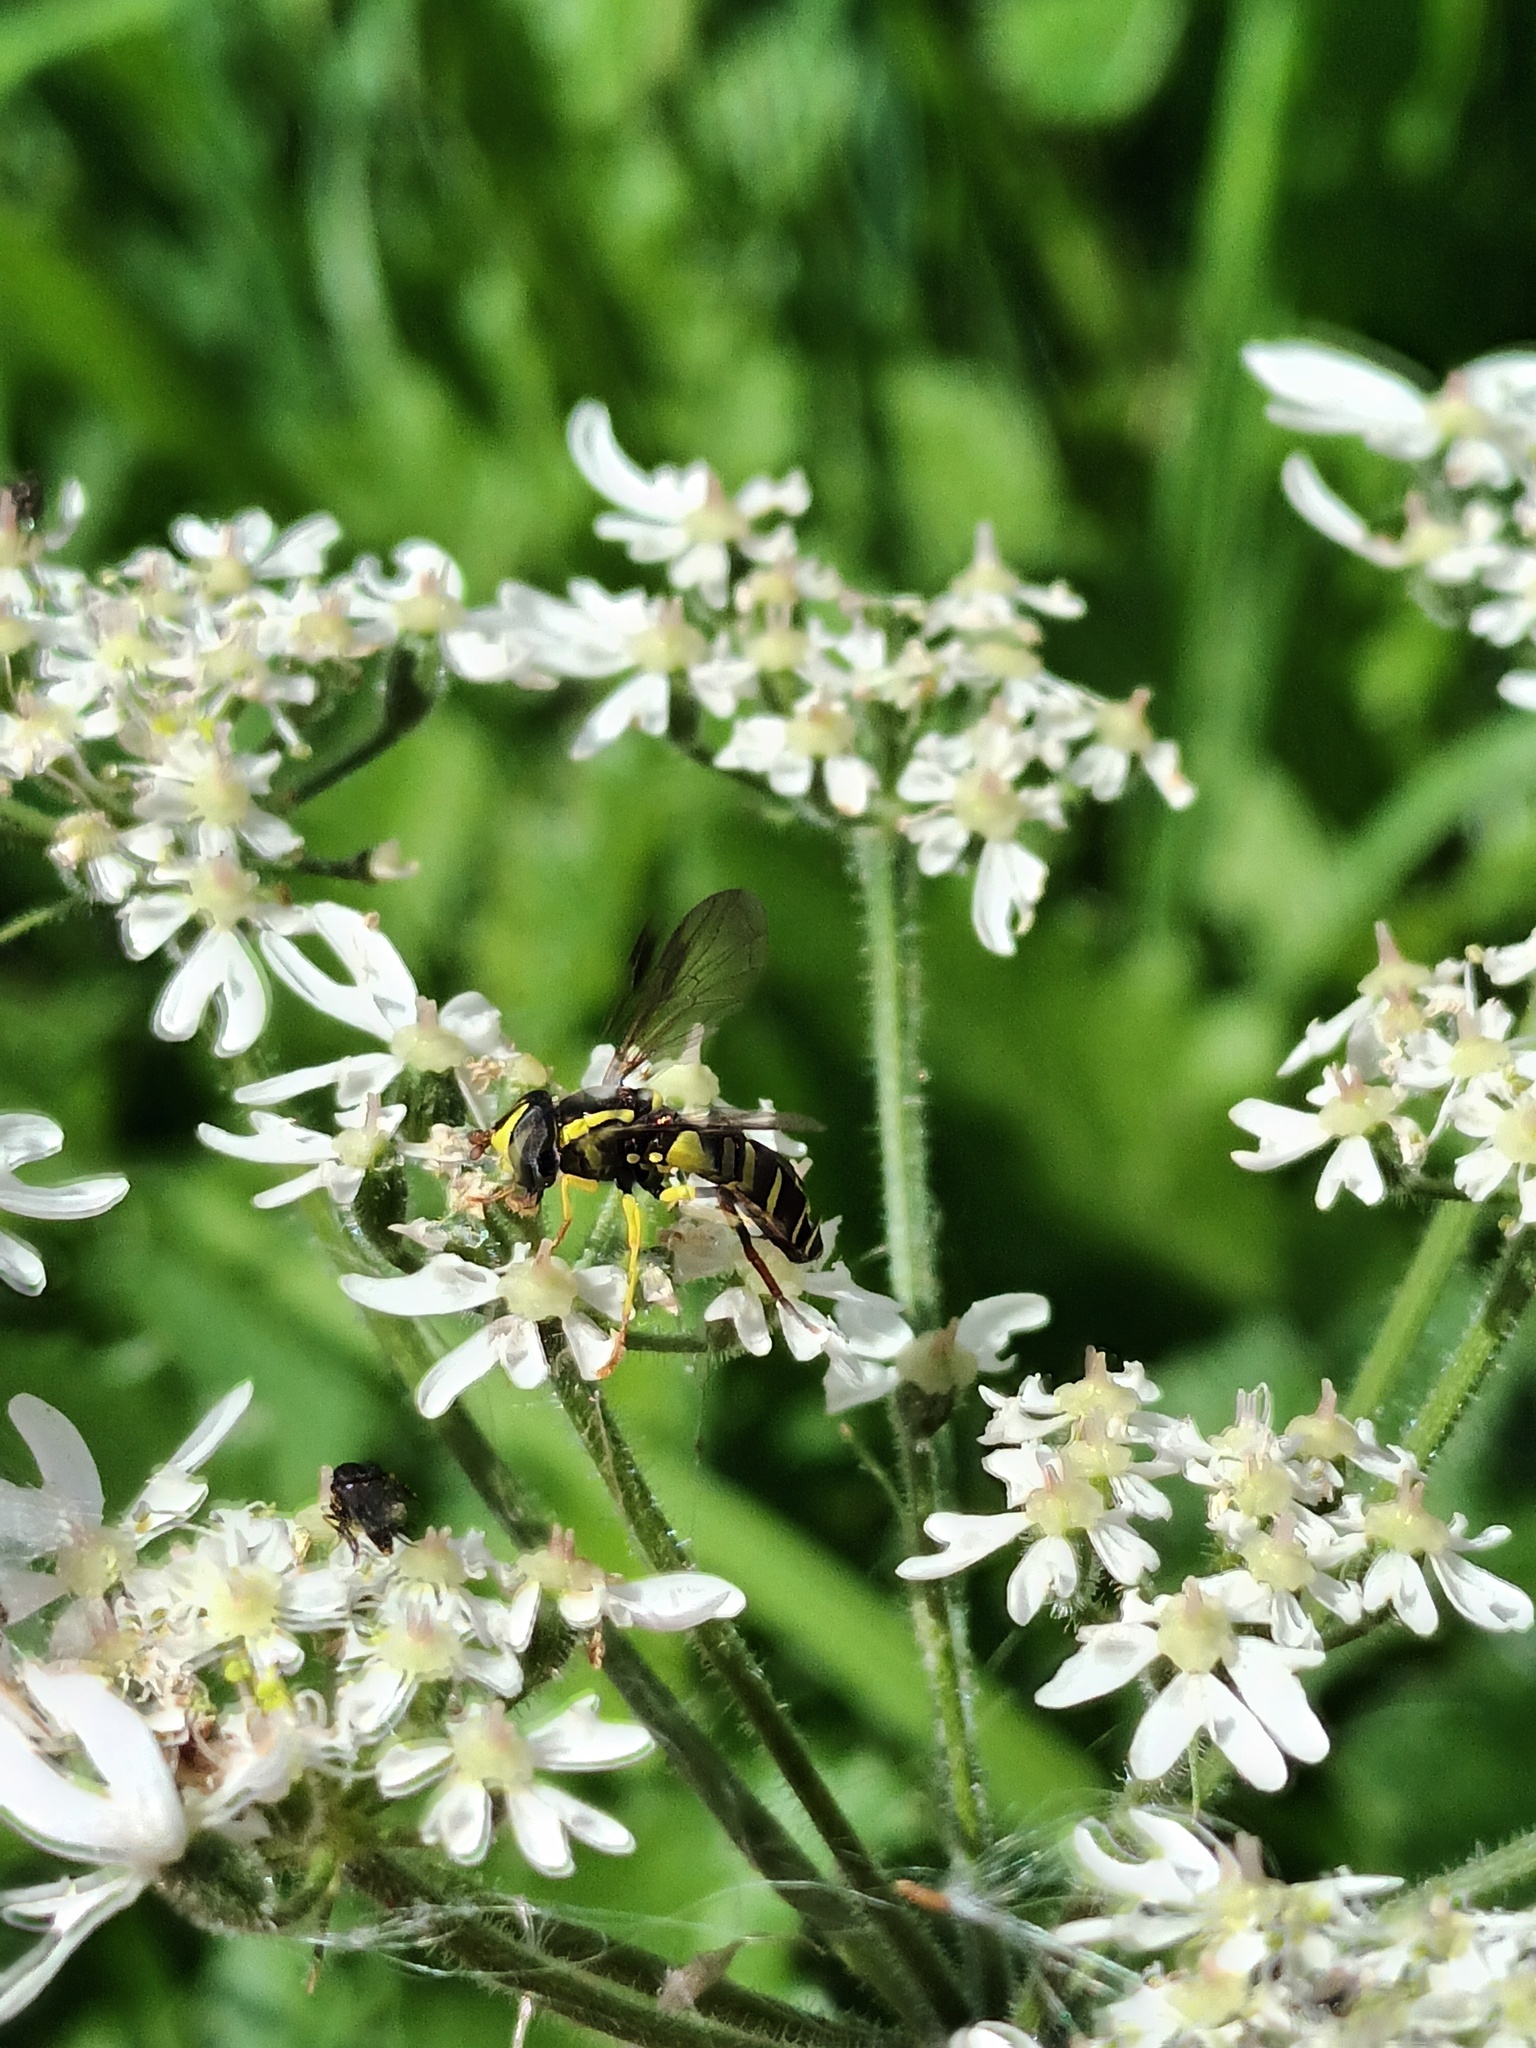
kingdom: Animalia
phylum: Arthropoda
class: Insecta
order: Diptera
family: Syrphidae
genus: Philhelius
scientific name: Philhelius pedissequum
